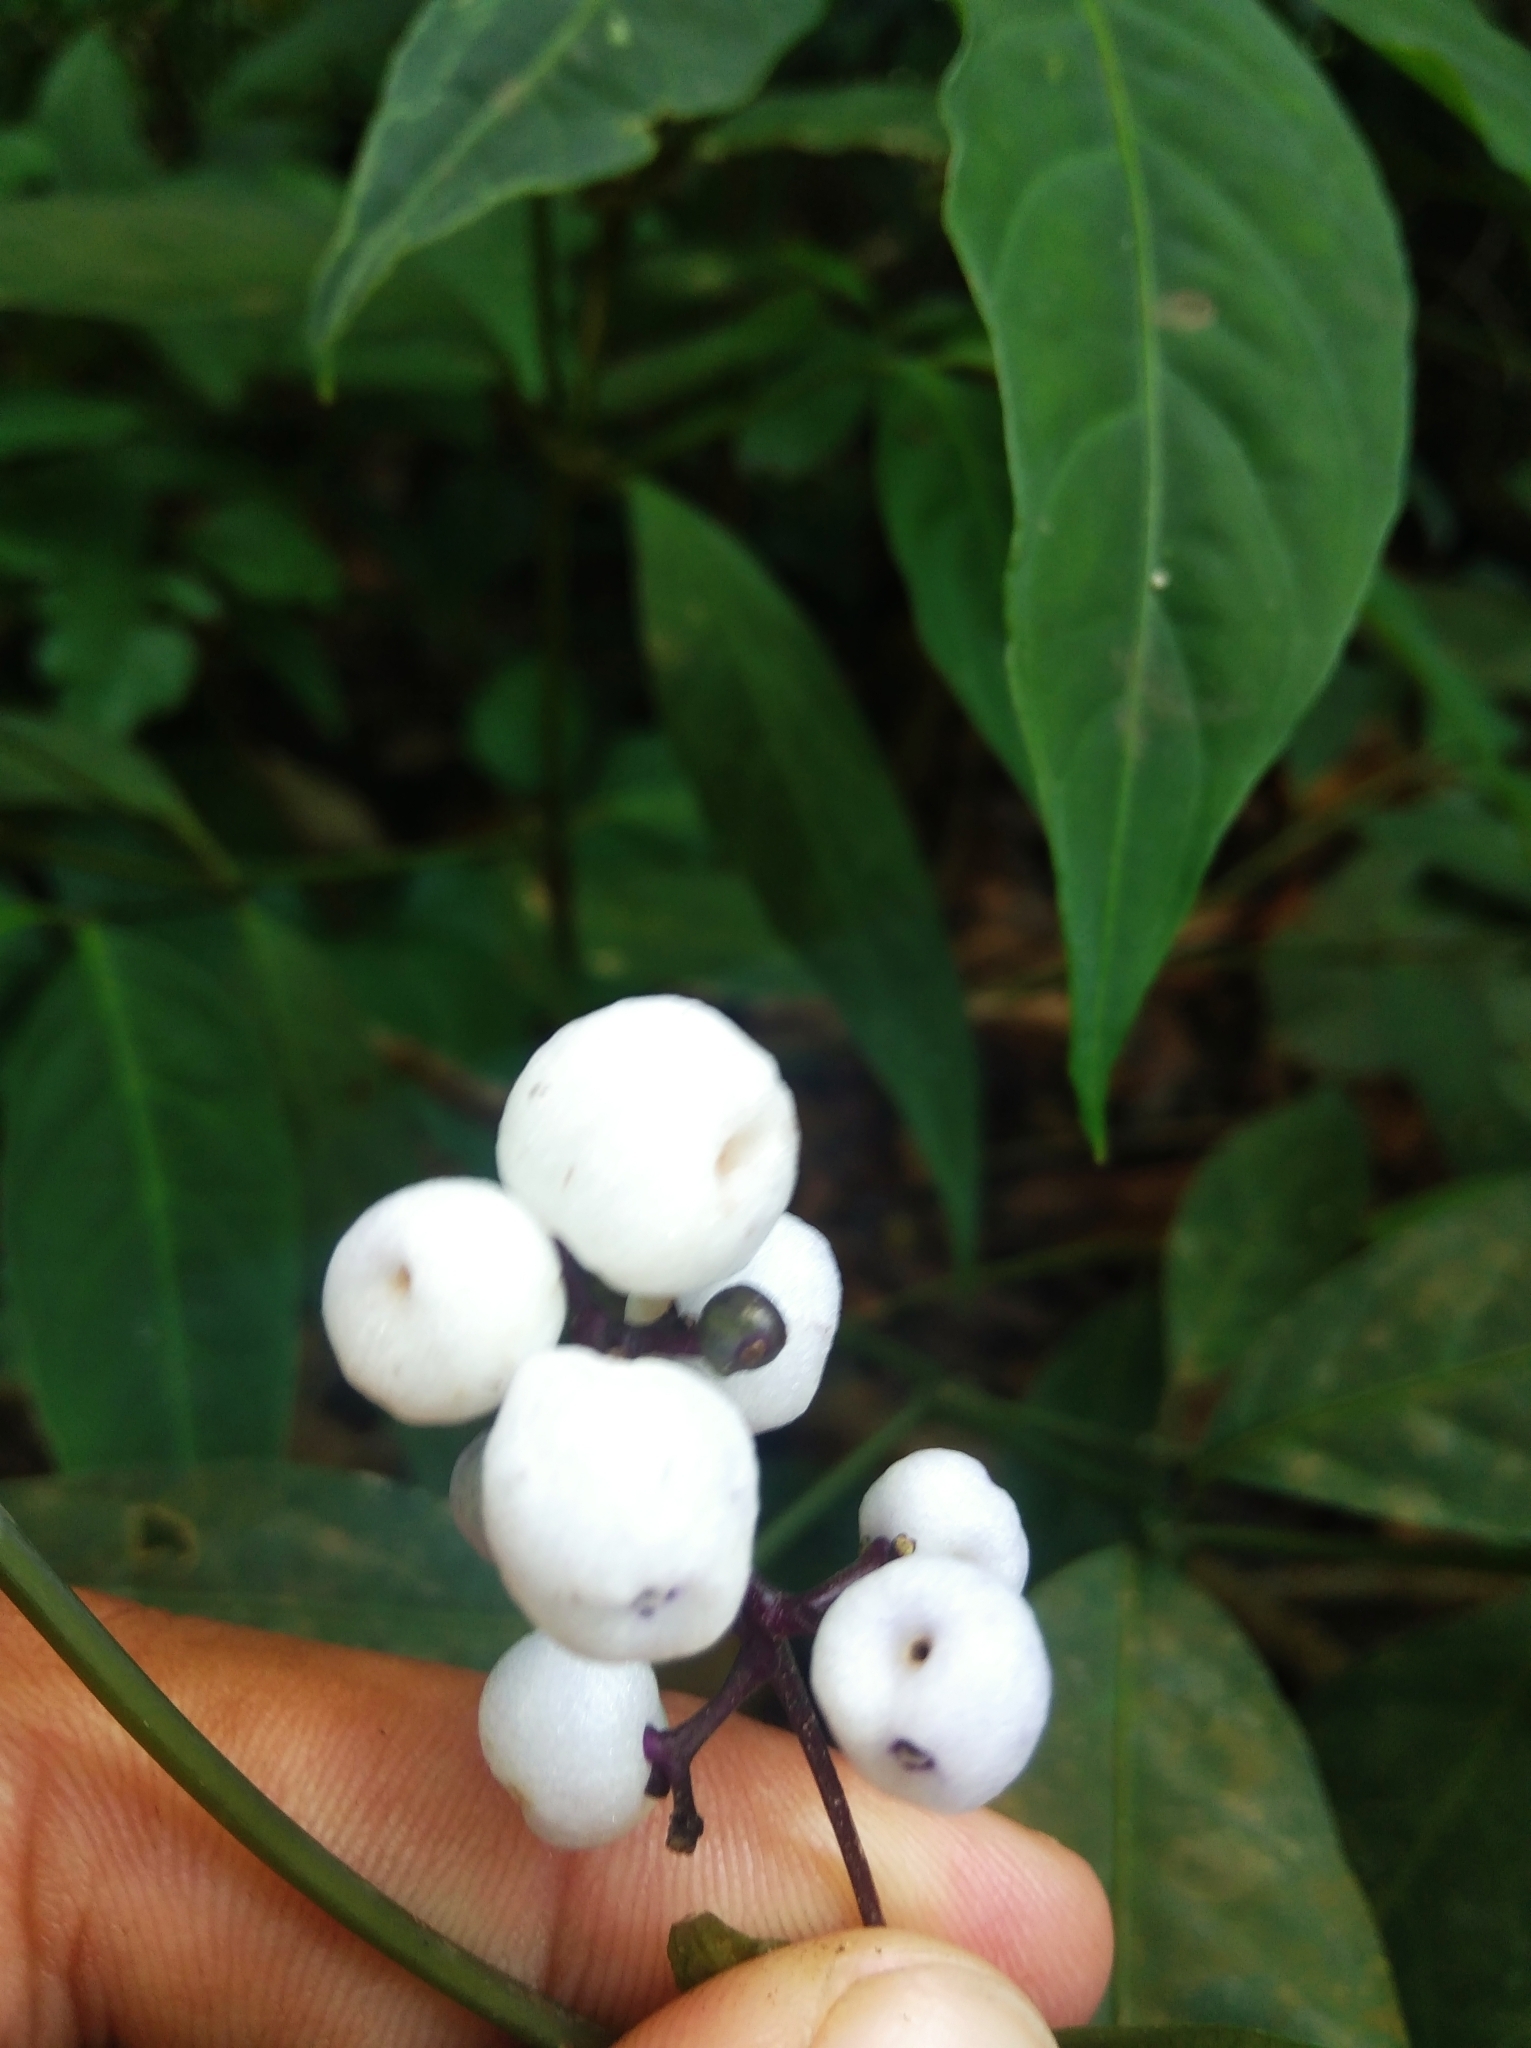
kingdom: Plantae
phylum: Tracheophyta
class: Magnoliopsida
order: Gentianales
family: Rubiaceae
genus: Palicourea
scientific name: Palicourea deflexa
